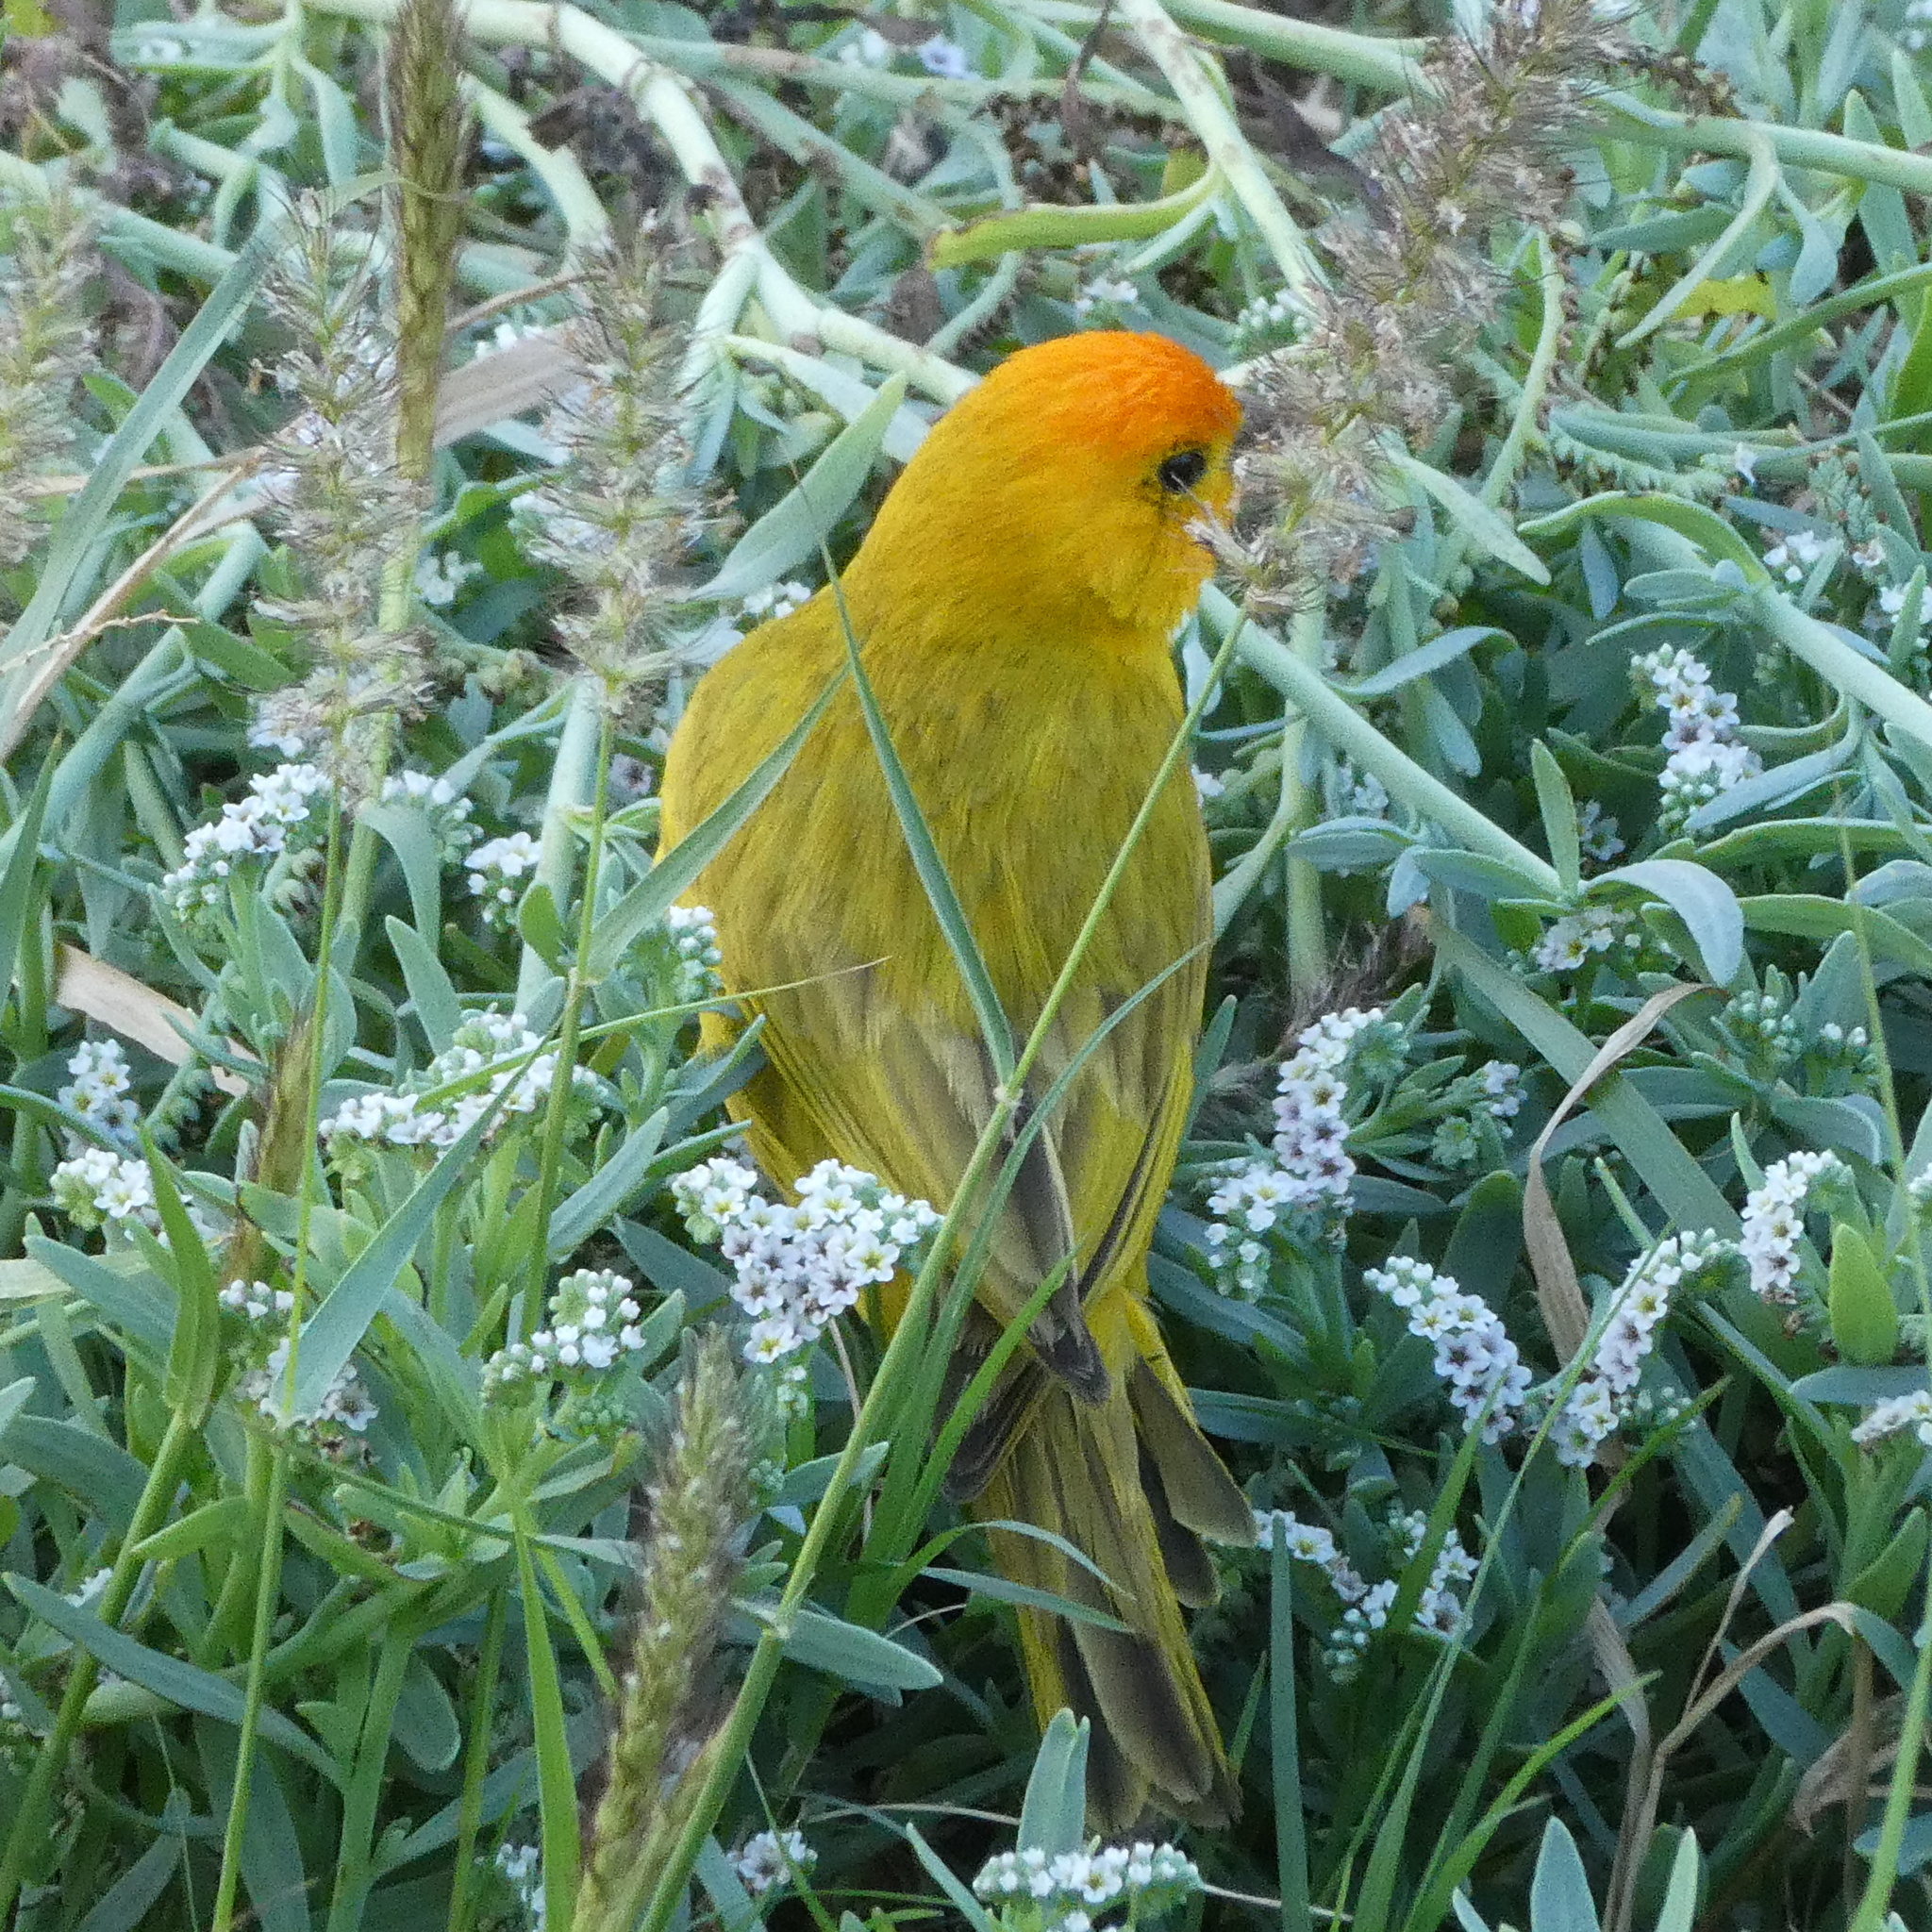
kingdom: Animalia
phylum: Chordata
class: Aves
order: Passeriformes
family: Thraupidae
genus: Sicalis
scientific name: Sicalis flaveola
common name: Saffron finch
